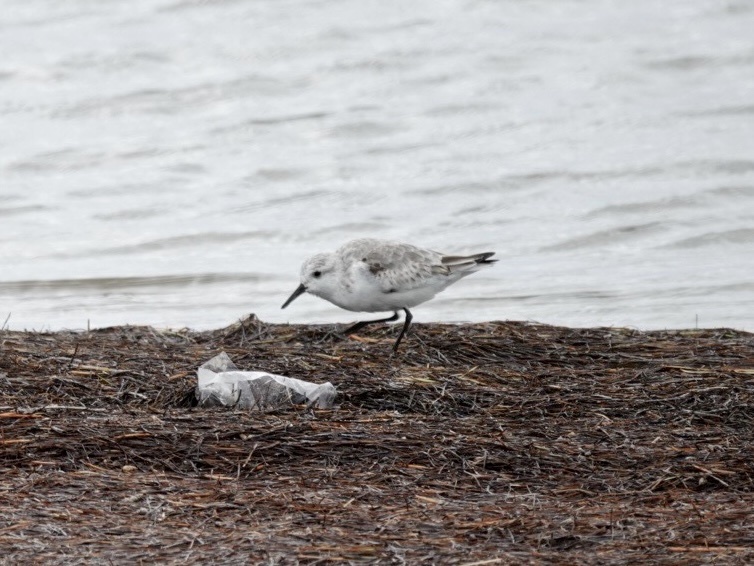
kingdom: Animalia
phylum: Chordata
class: Aves
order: Charadriiformes
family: Scolopacidae
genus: Calidris
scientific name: Calidris alba
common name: Sanderling
